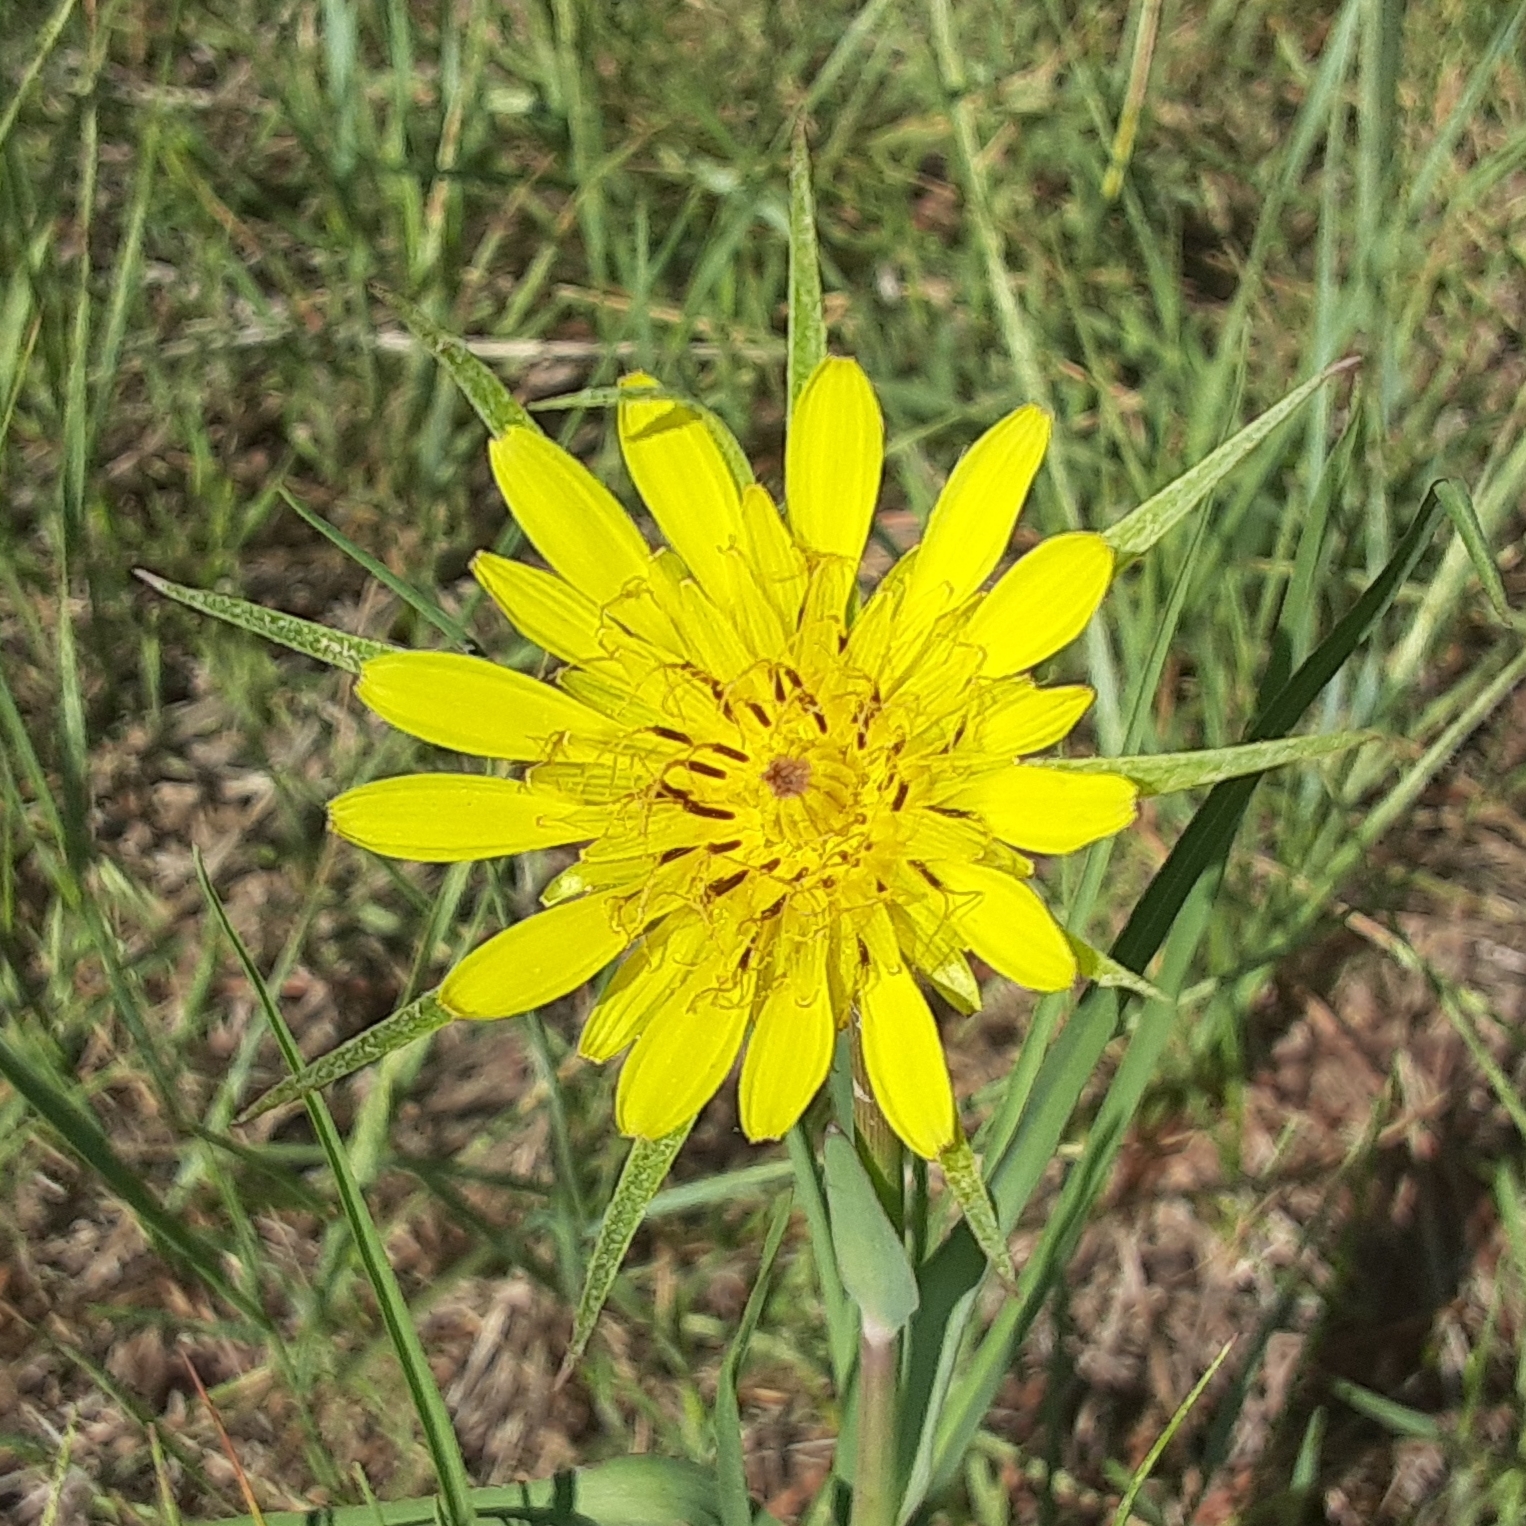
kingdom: Plantae
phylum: Tracheophyta
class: Magnoliopsida
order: Asterales
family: Asteraceae
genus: Tragopogon
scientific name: Tragopogon dubius
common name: Yellow salsify
